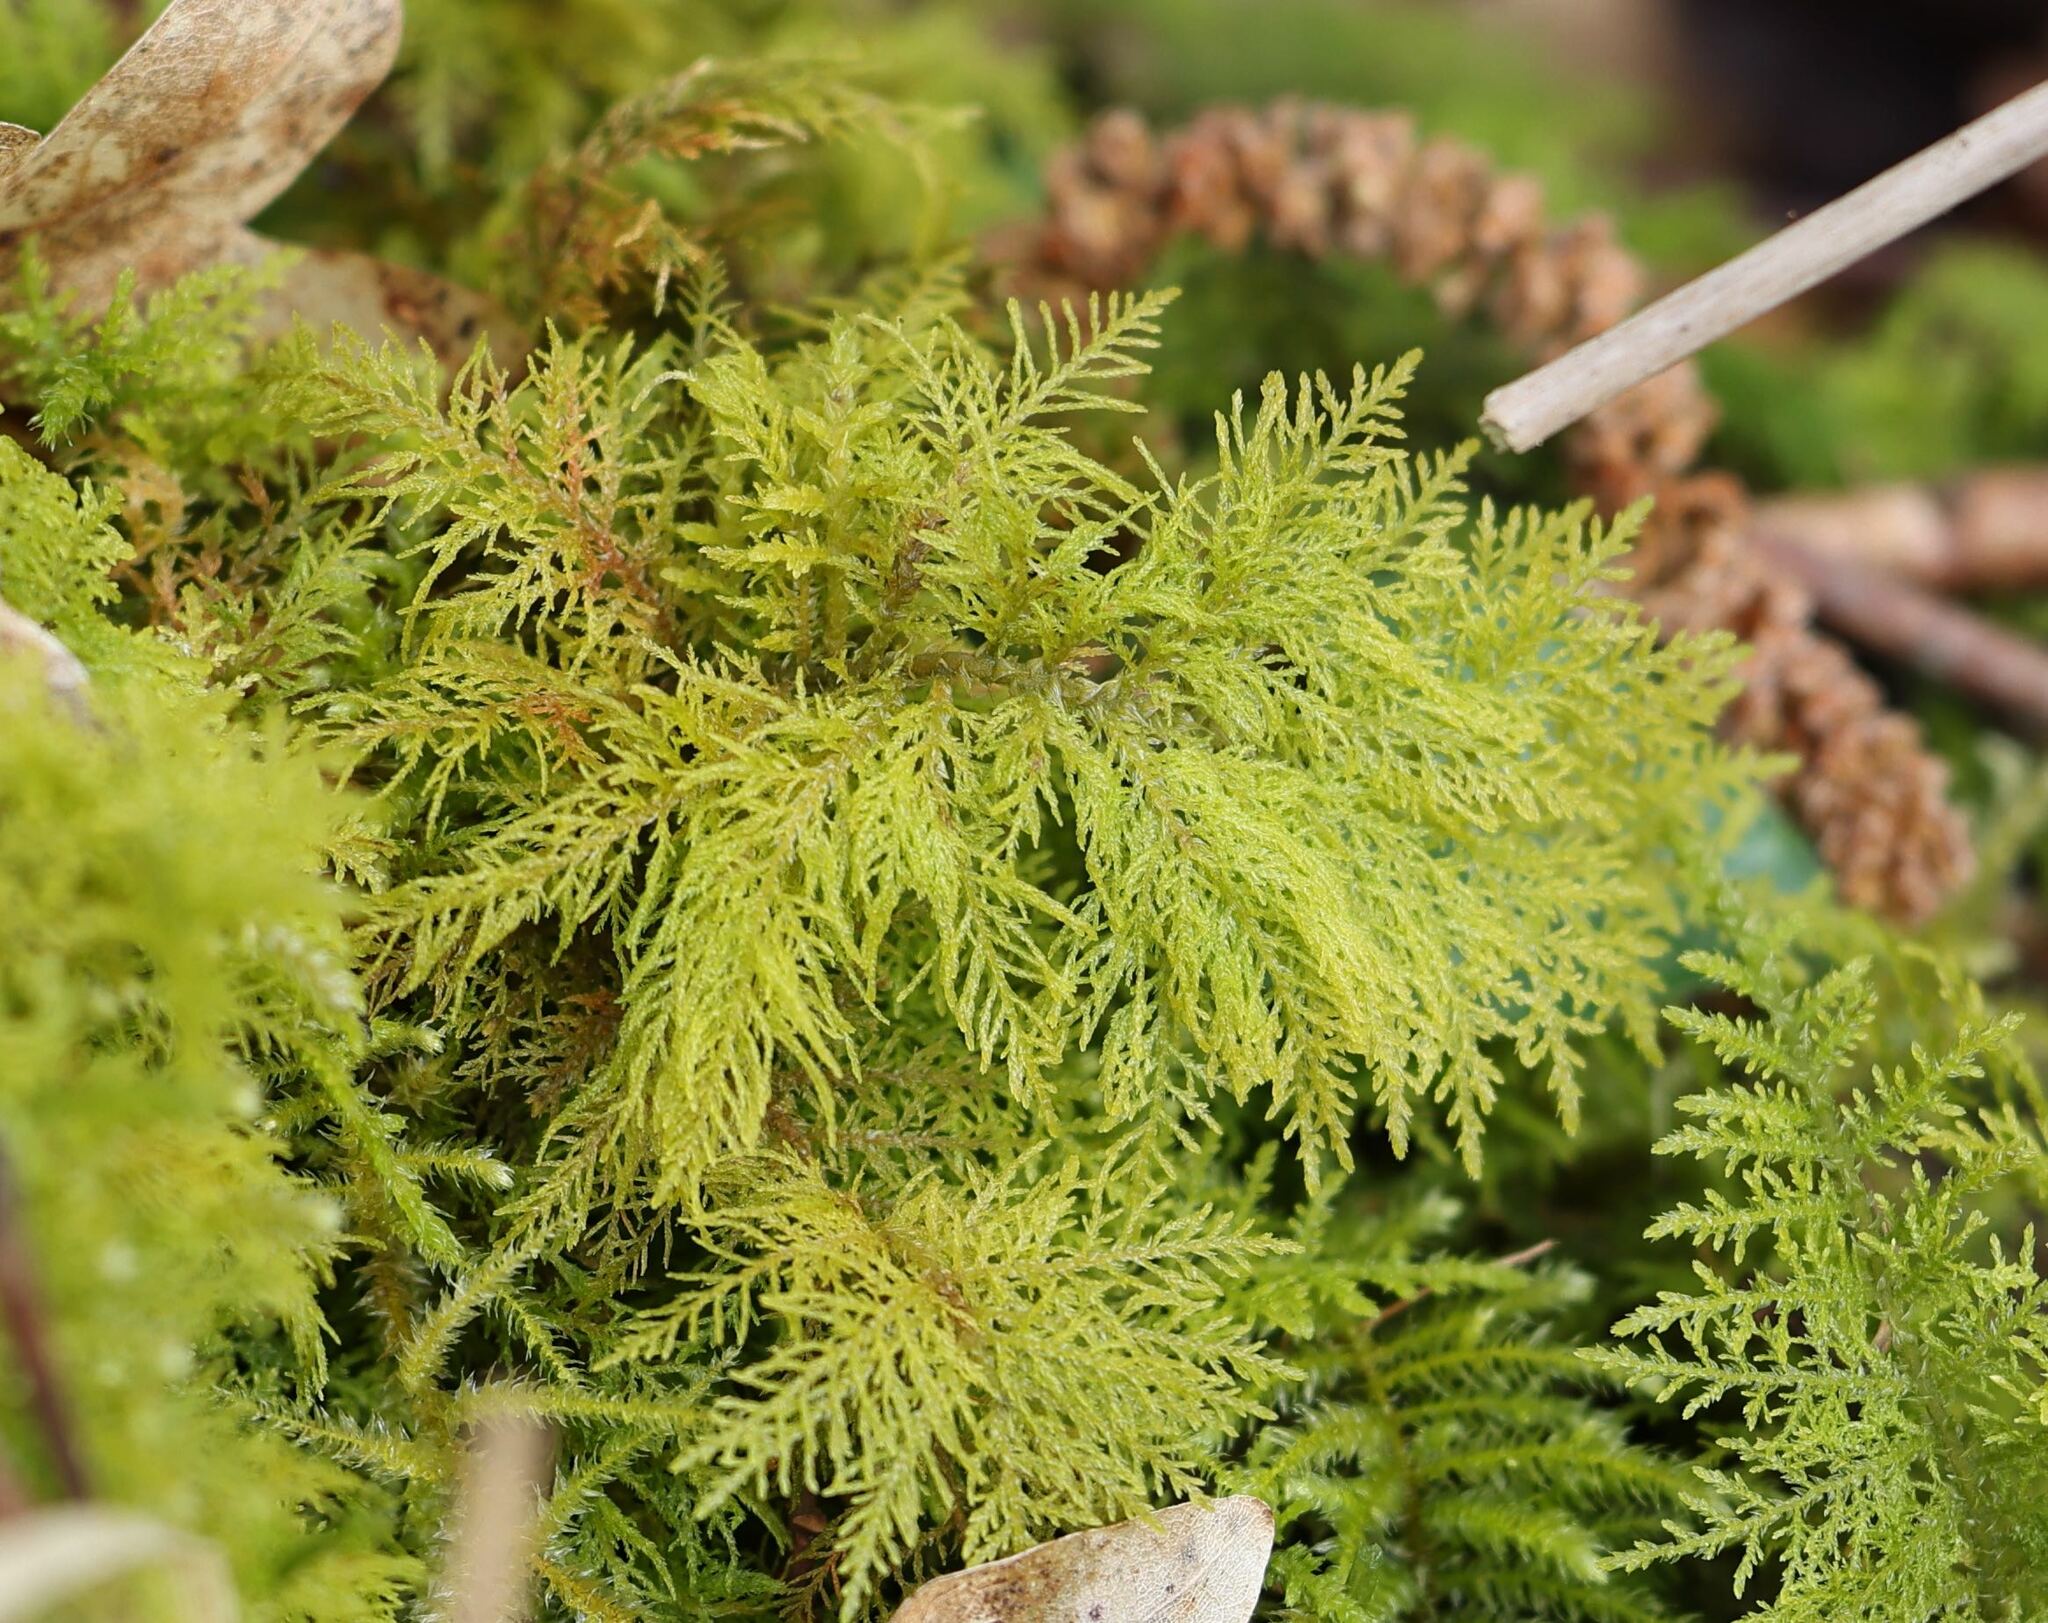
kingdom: Plantae
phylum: Bryophyta
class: Bryopsida
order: Hypnales
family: Thuidiaceae
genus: Thuidium
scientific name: Thuidium tamariscinum
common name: Common tamarisk-moss
